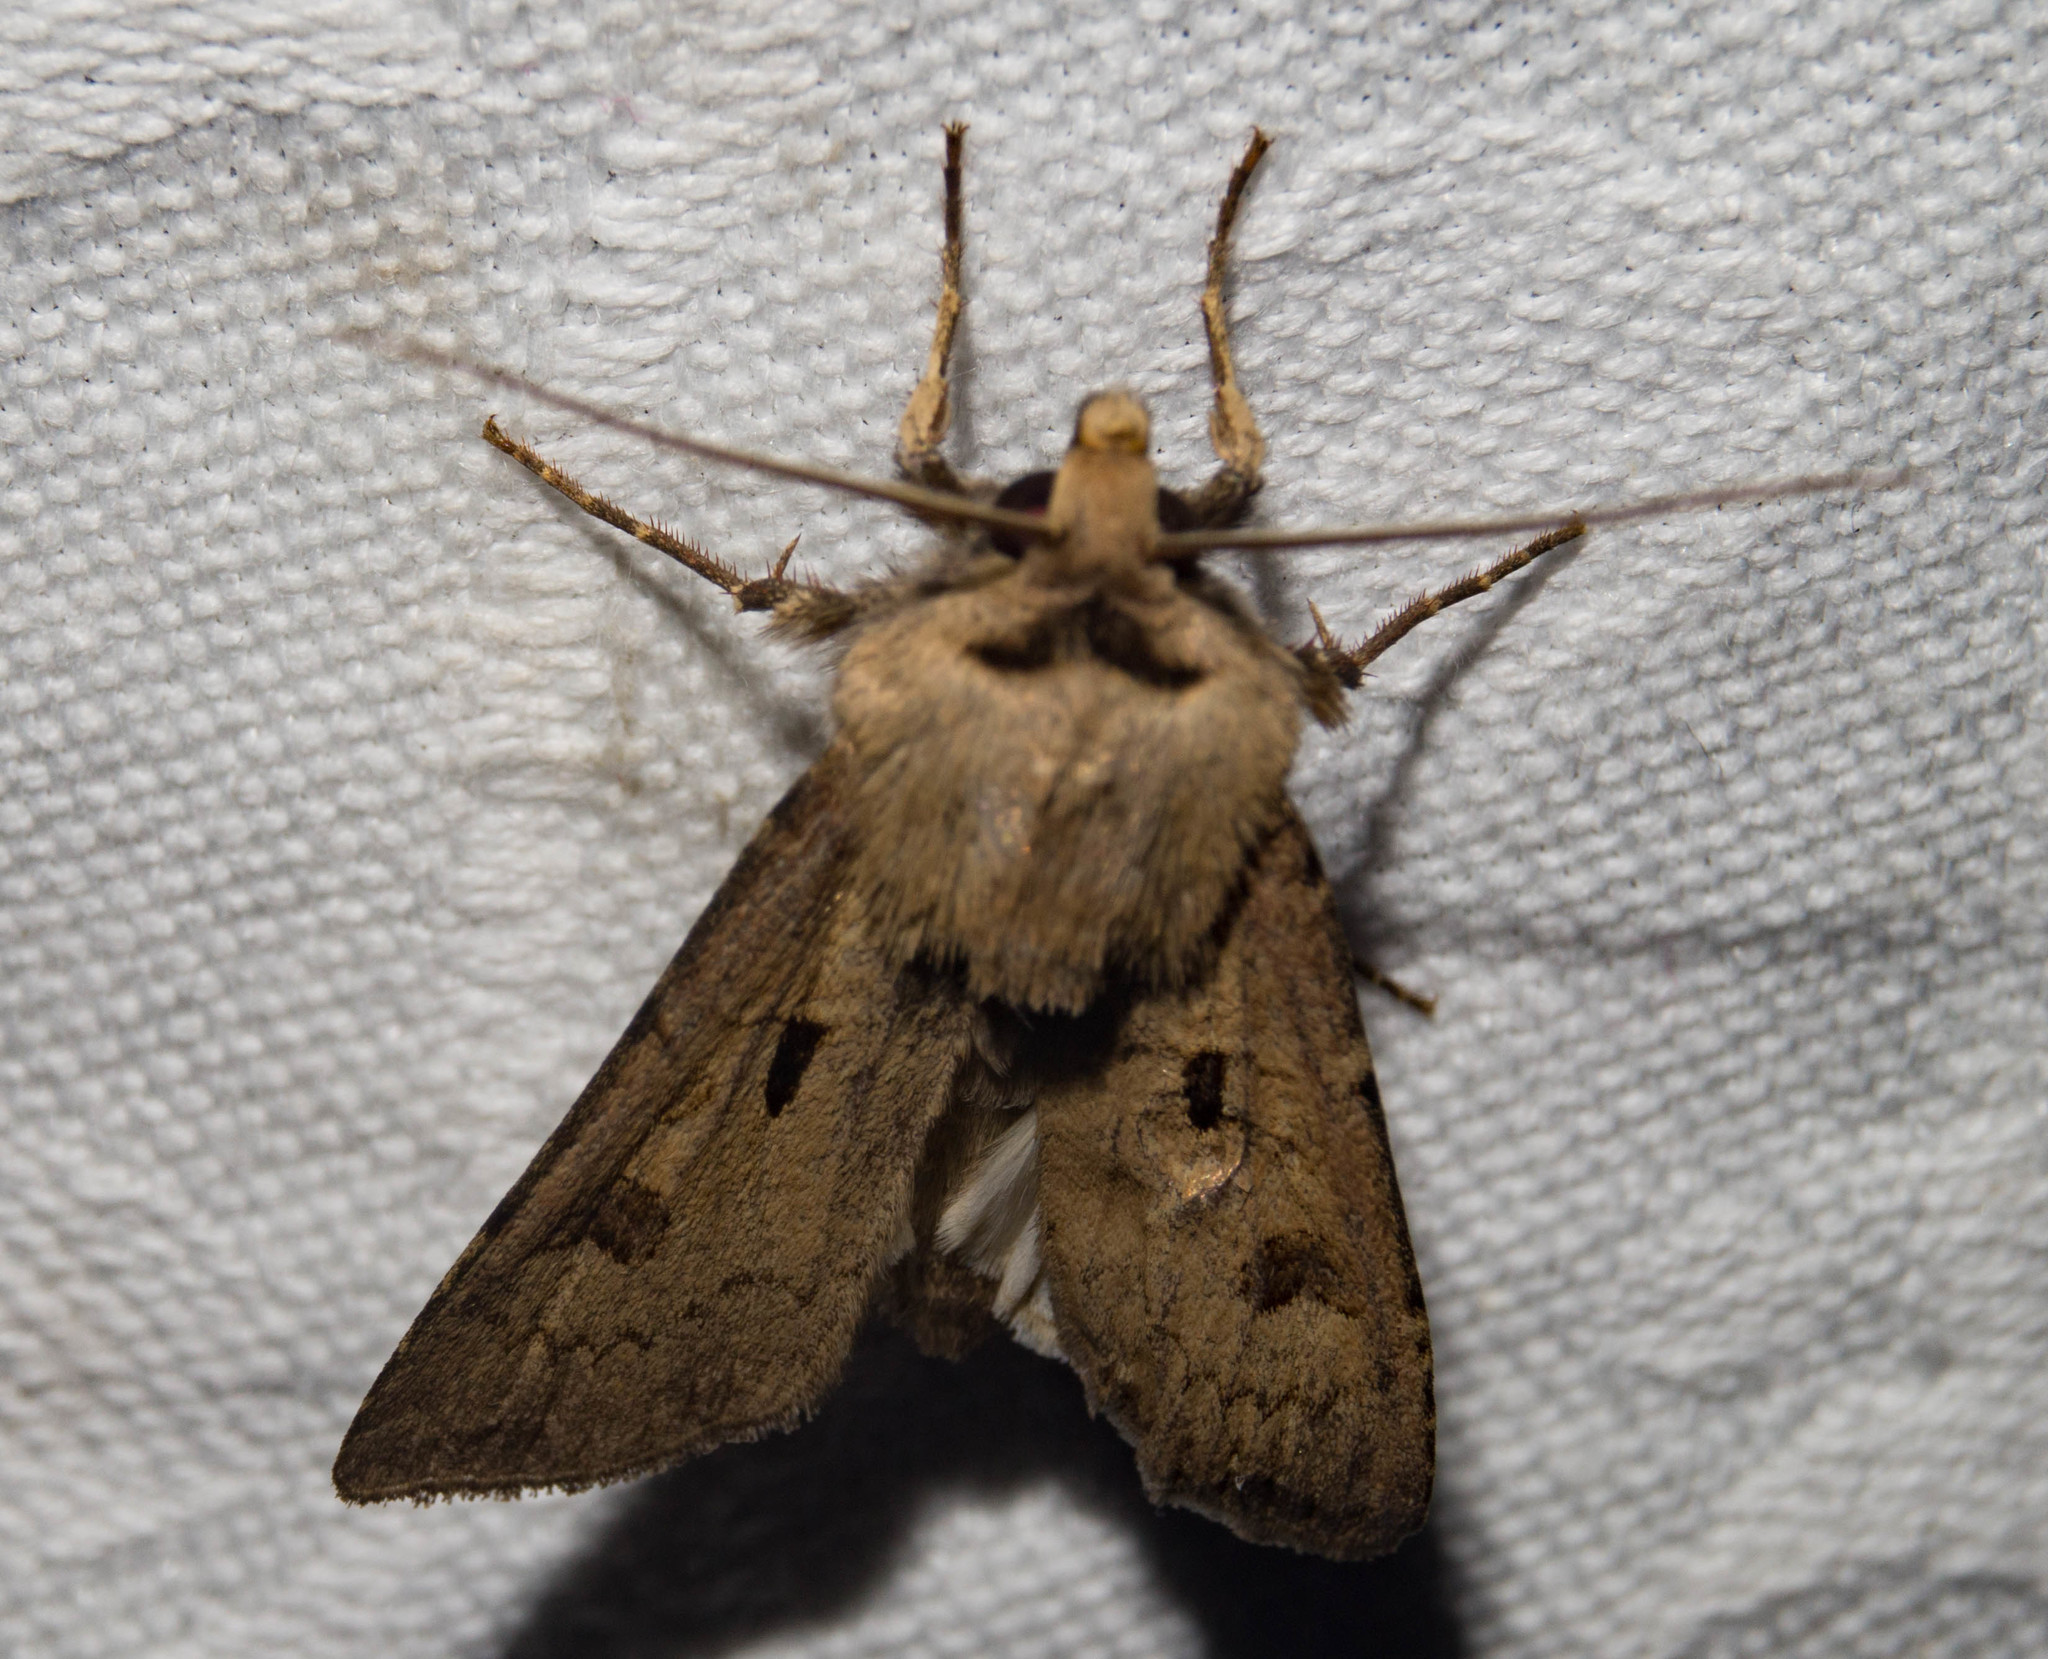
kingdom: Animalia
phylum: Arthropoda
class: Insecta
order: Lepidoptera
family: Noctuidae
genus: Agrotis
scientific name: Agrotis exclamationis
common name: Heart and dart
